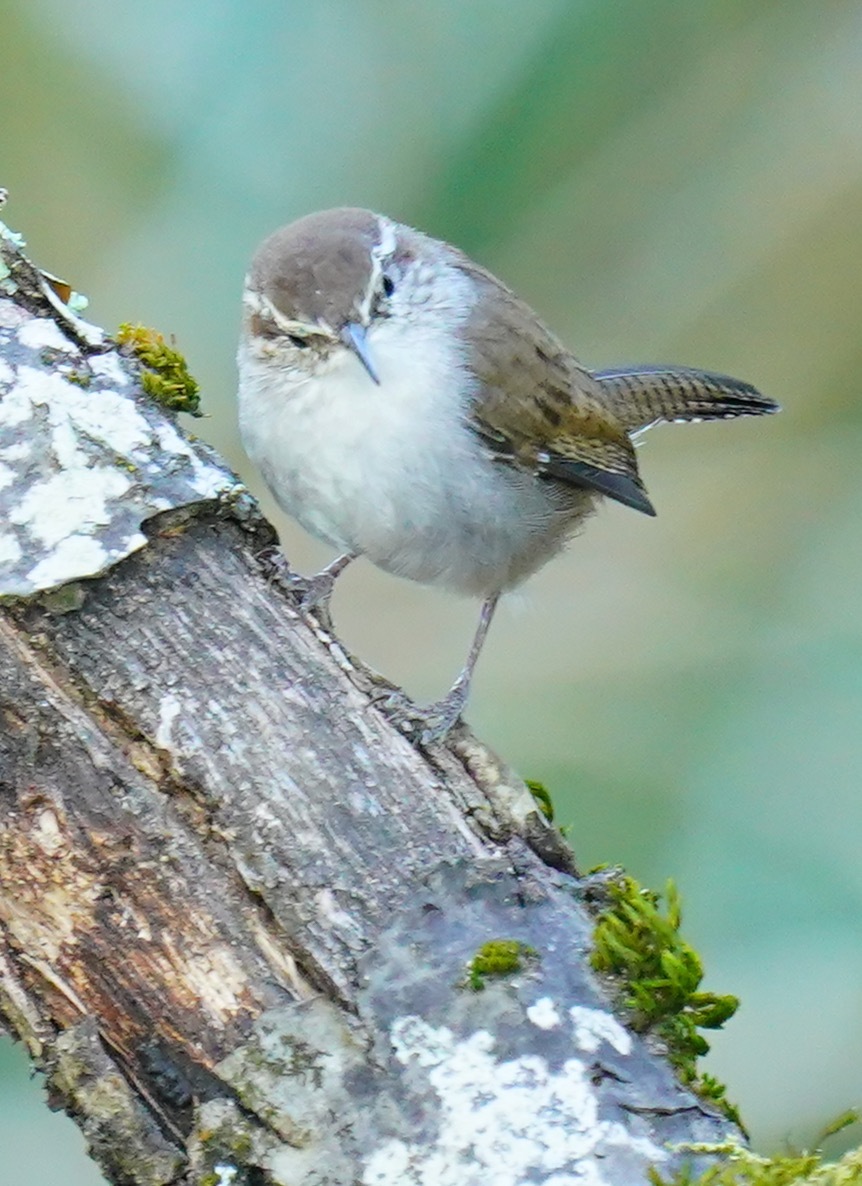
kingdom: Animalia
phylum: Chordata
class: Aves
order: Passeriformes
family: Troglodytidae
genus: Thryomanes
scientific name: Thryomanes bewickii
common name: Bewick's wren
